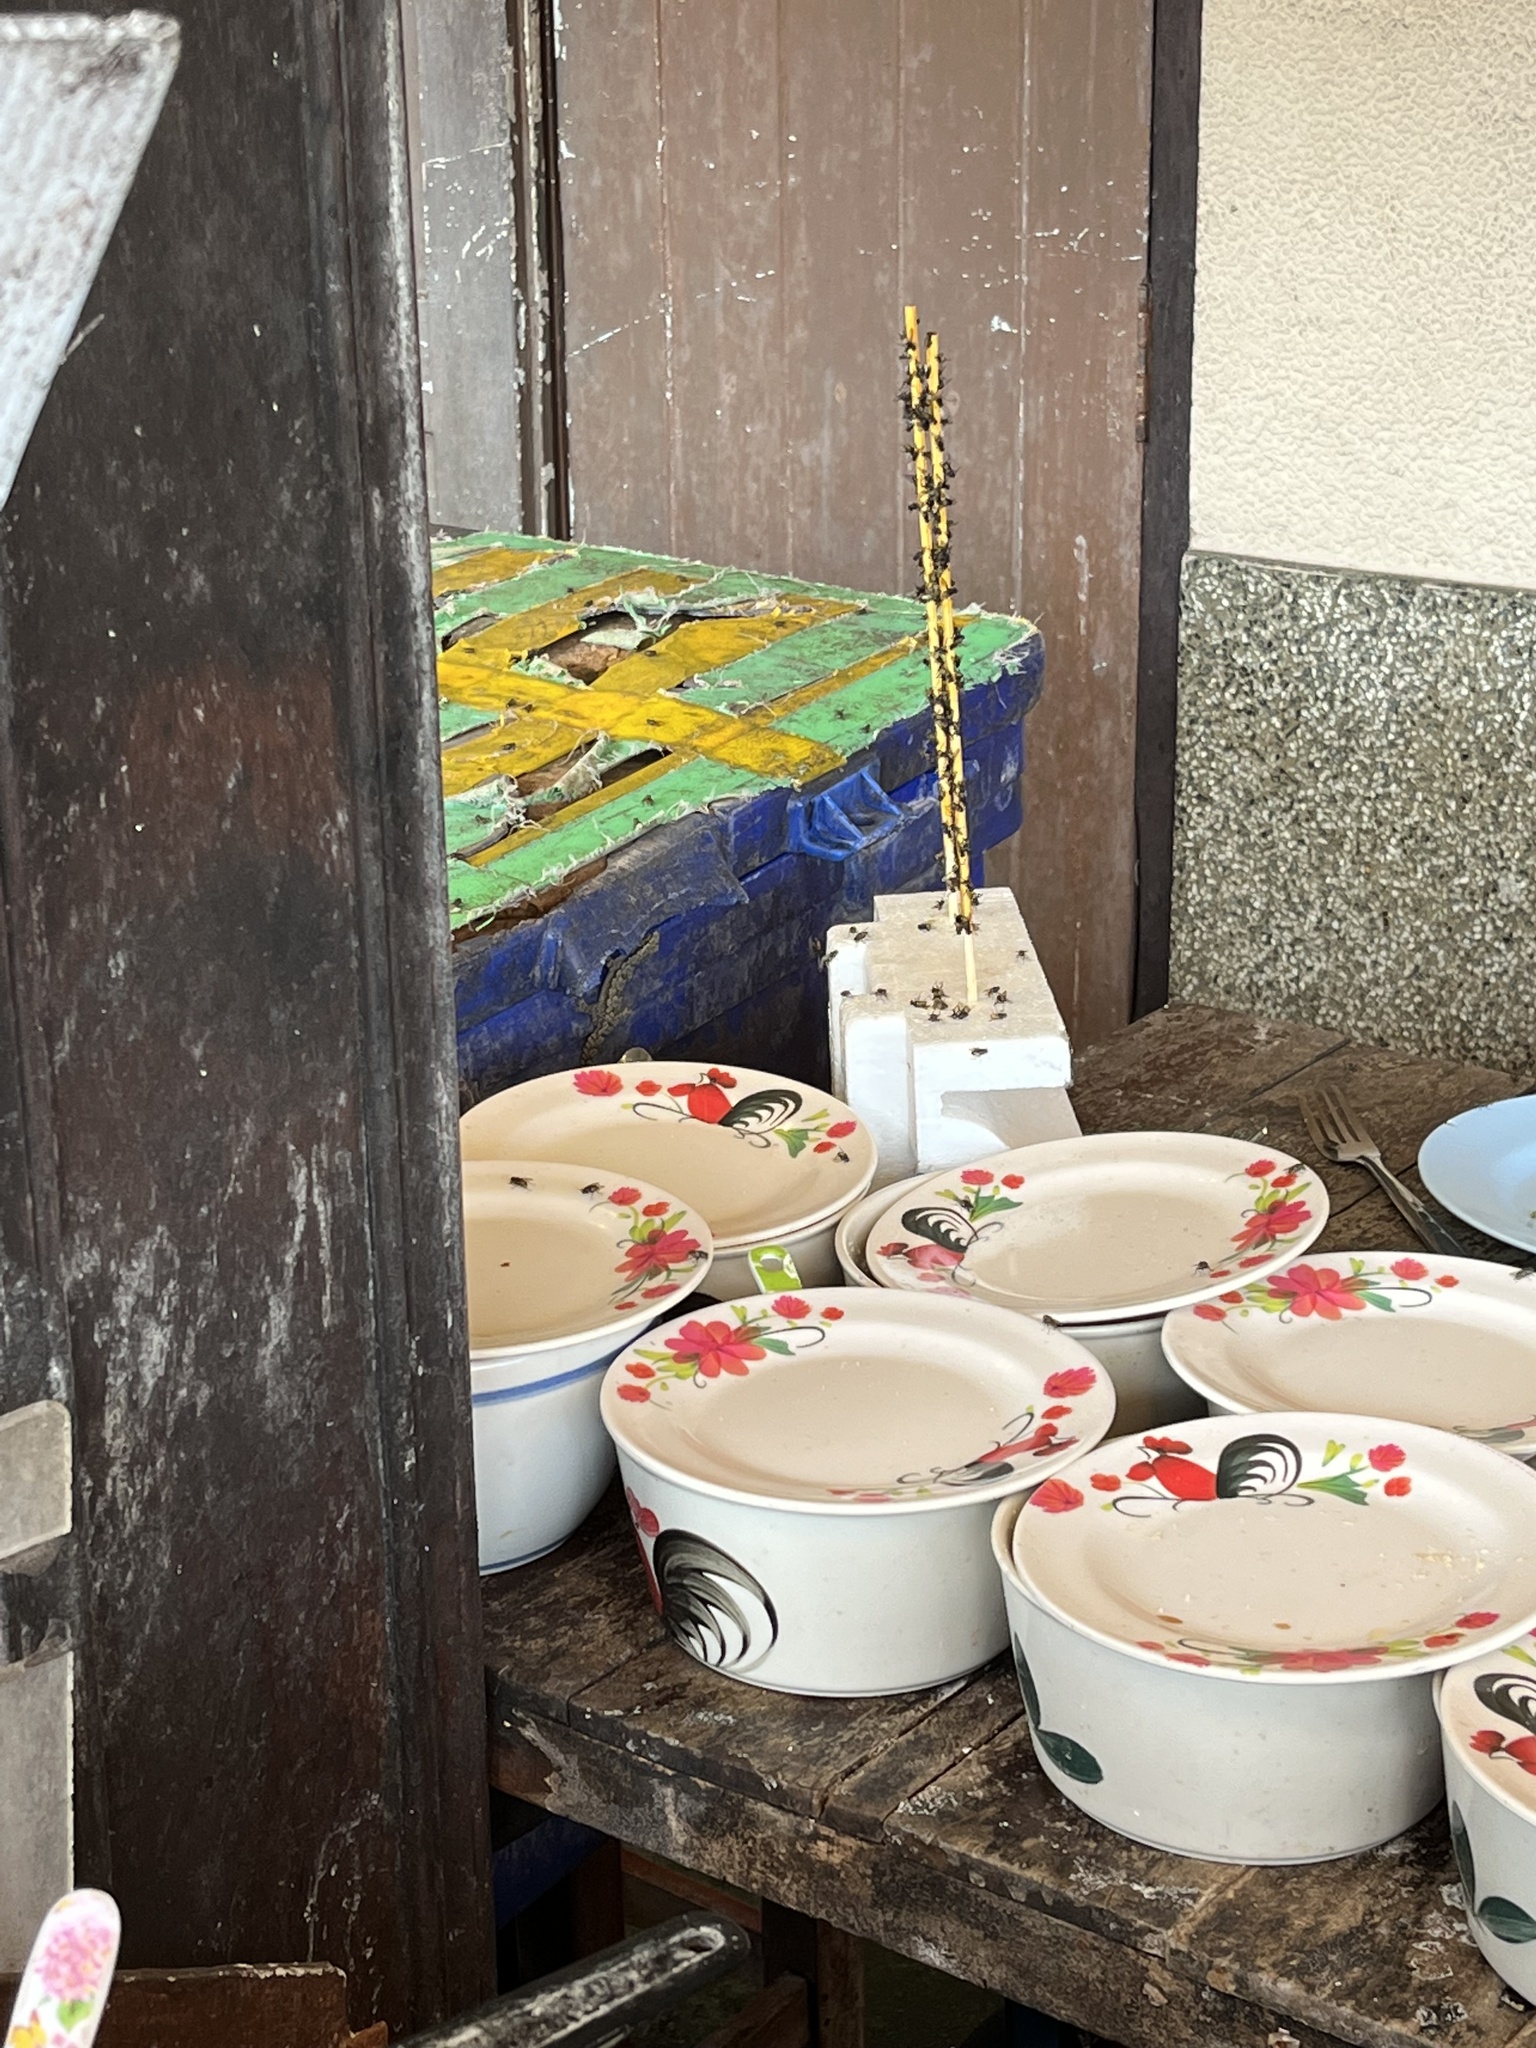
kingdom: Animalia
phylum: Chordata
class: Squamata
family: Gekkonidae
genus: Hemidactylus
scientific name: Hemidactylus platyurus
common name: Flat-tailed house gecko
